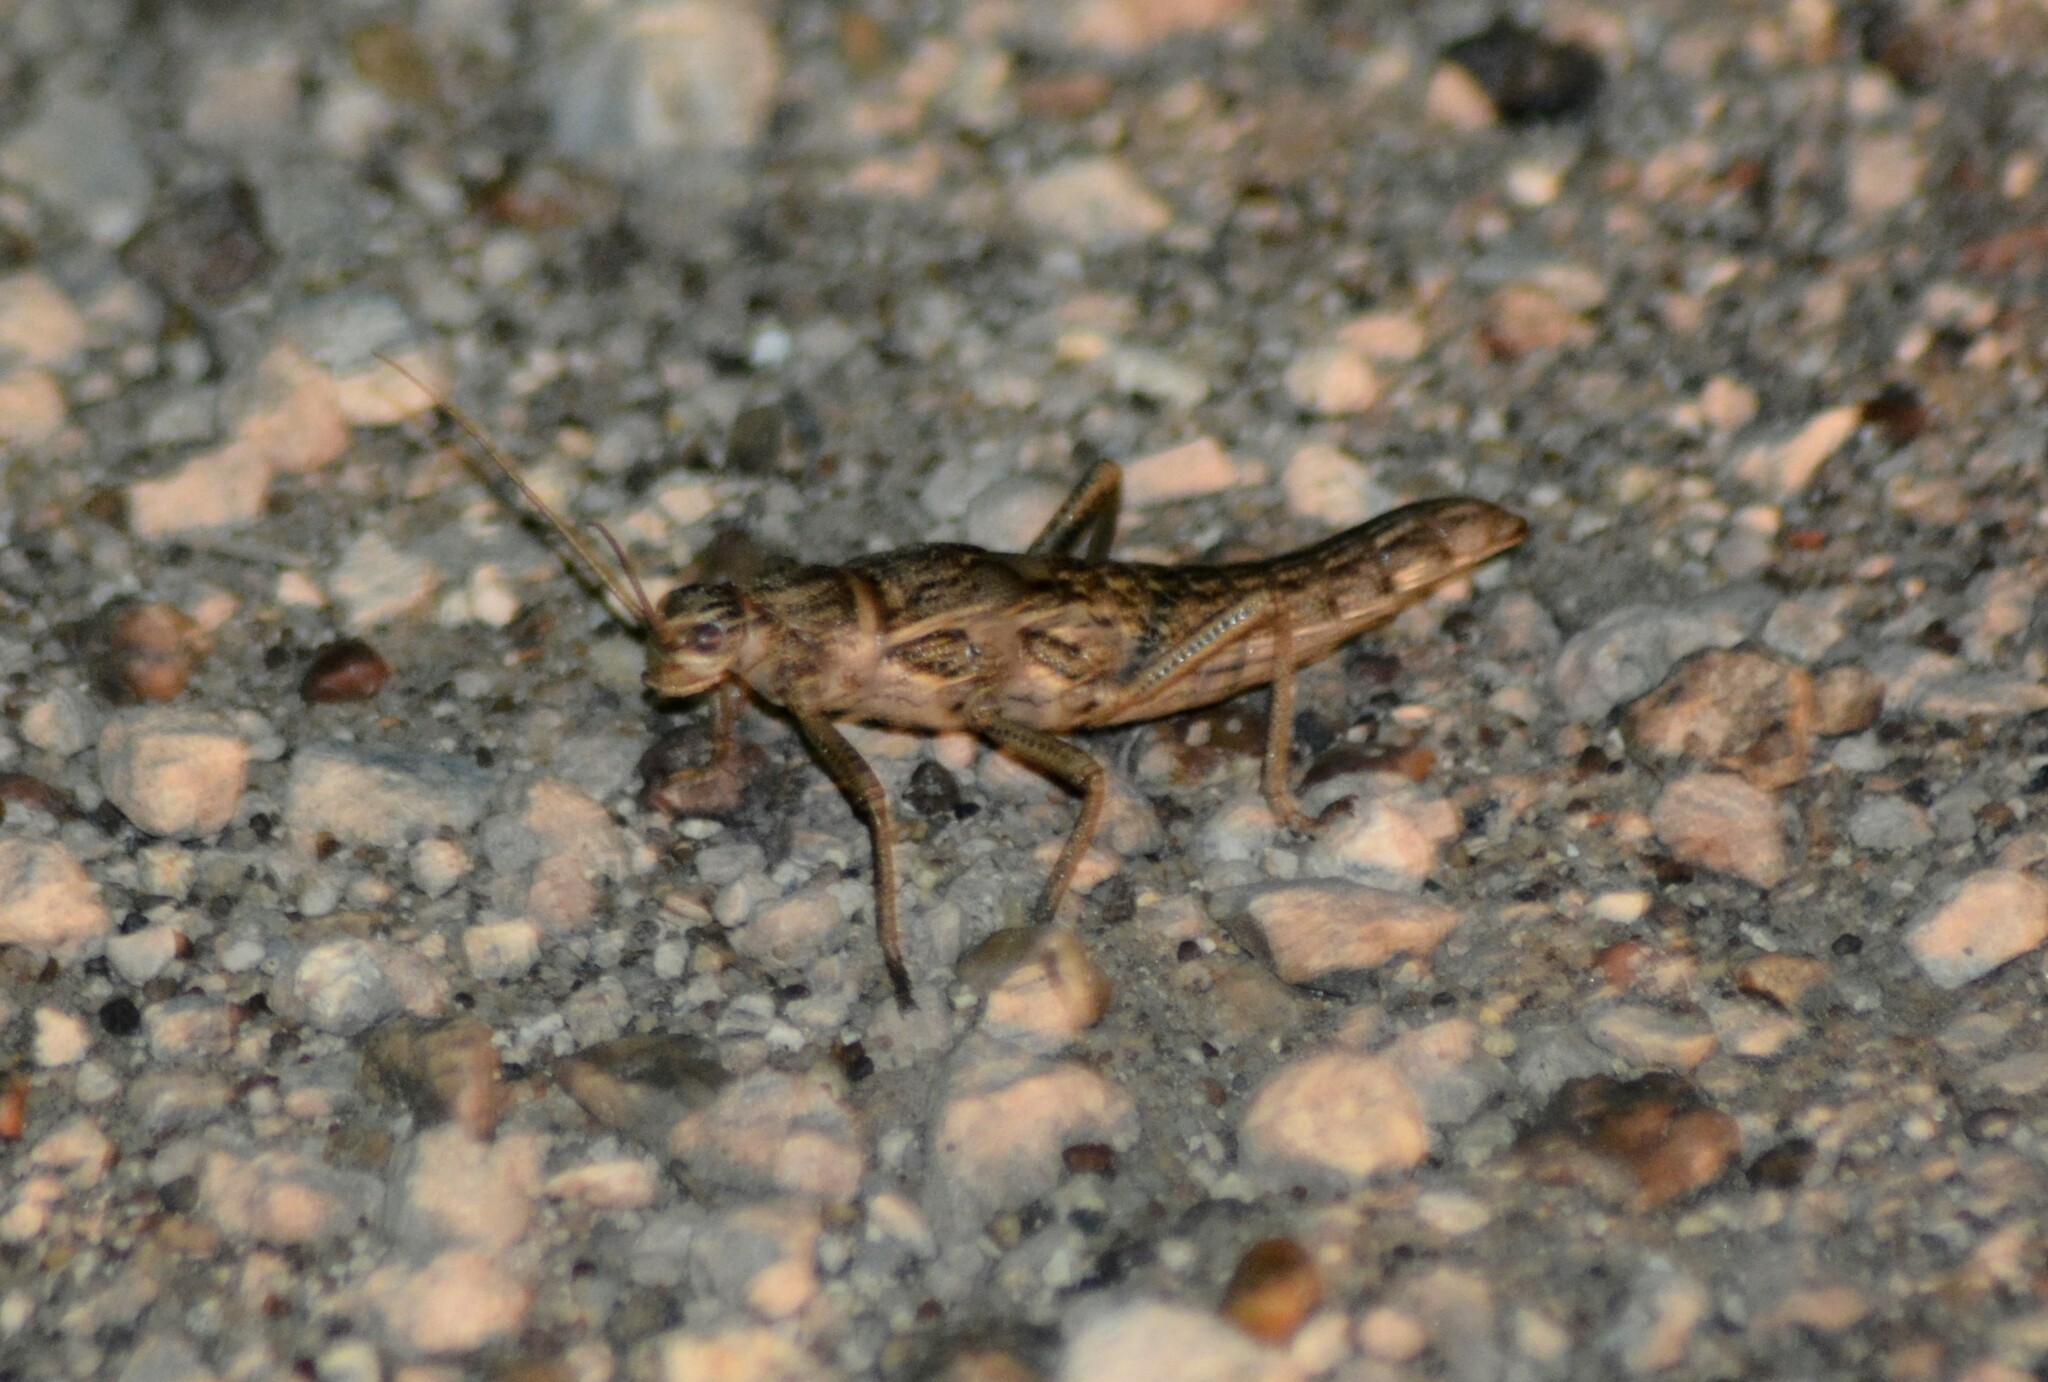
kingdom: Animalia
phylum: Arthropoda
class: Insecta
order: Phasmida
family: Agathemeridae
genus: Agathemera
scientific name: Agathemera millepunctata
